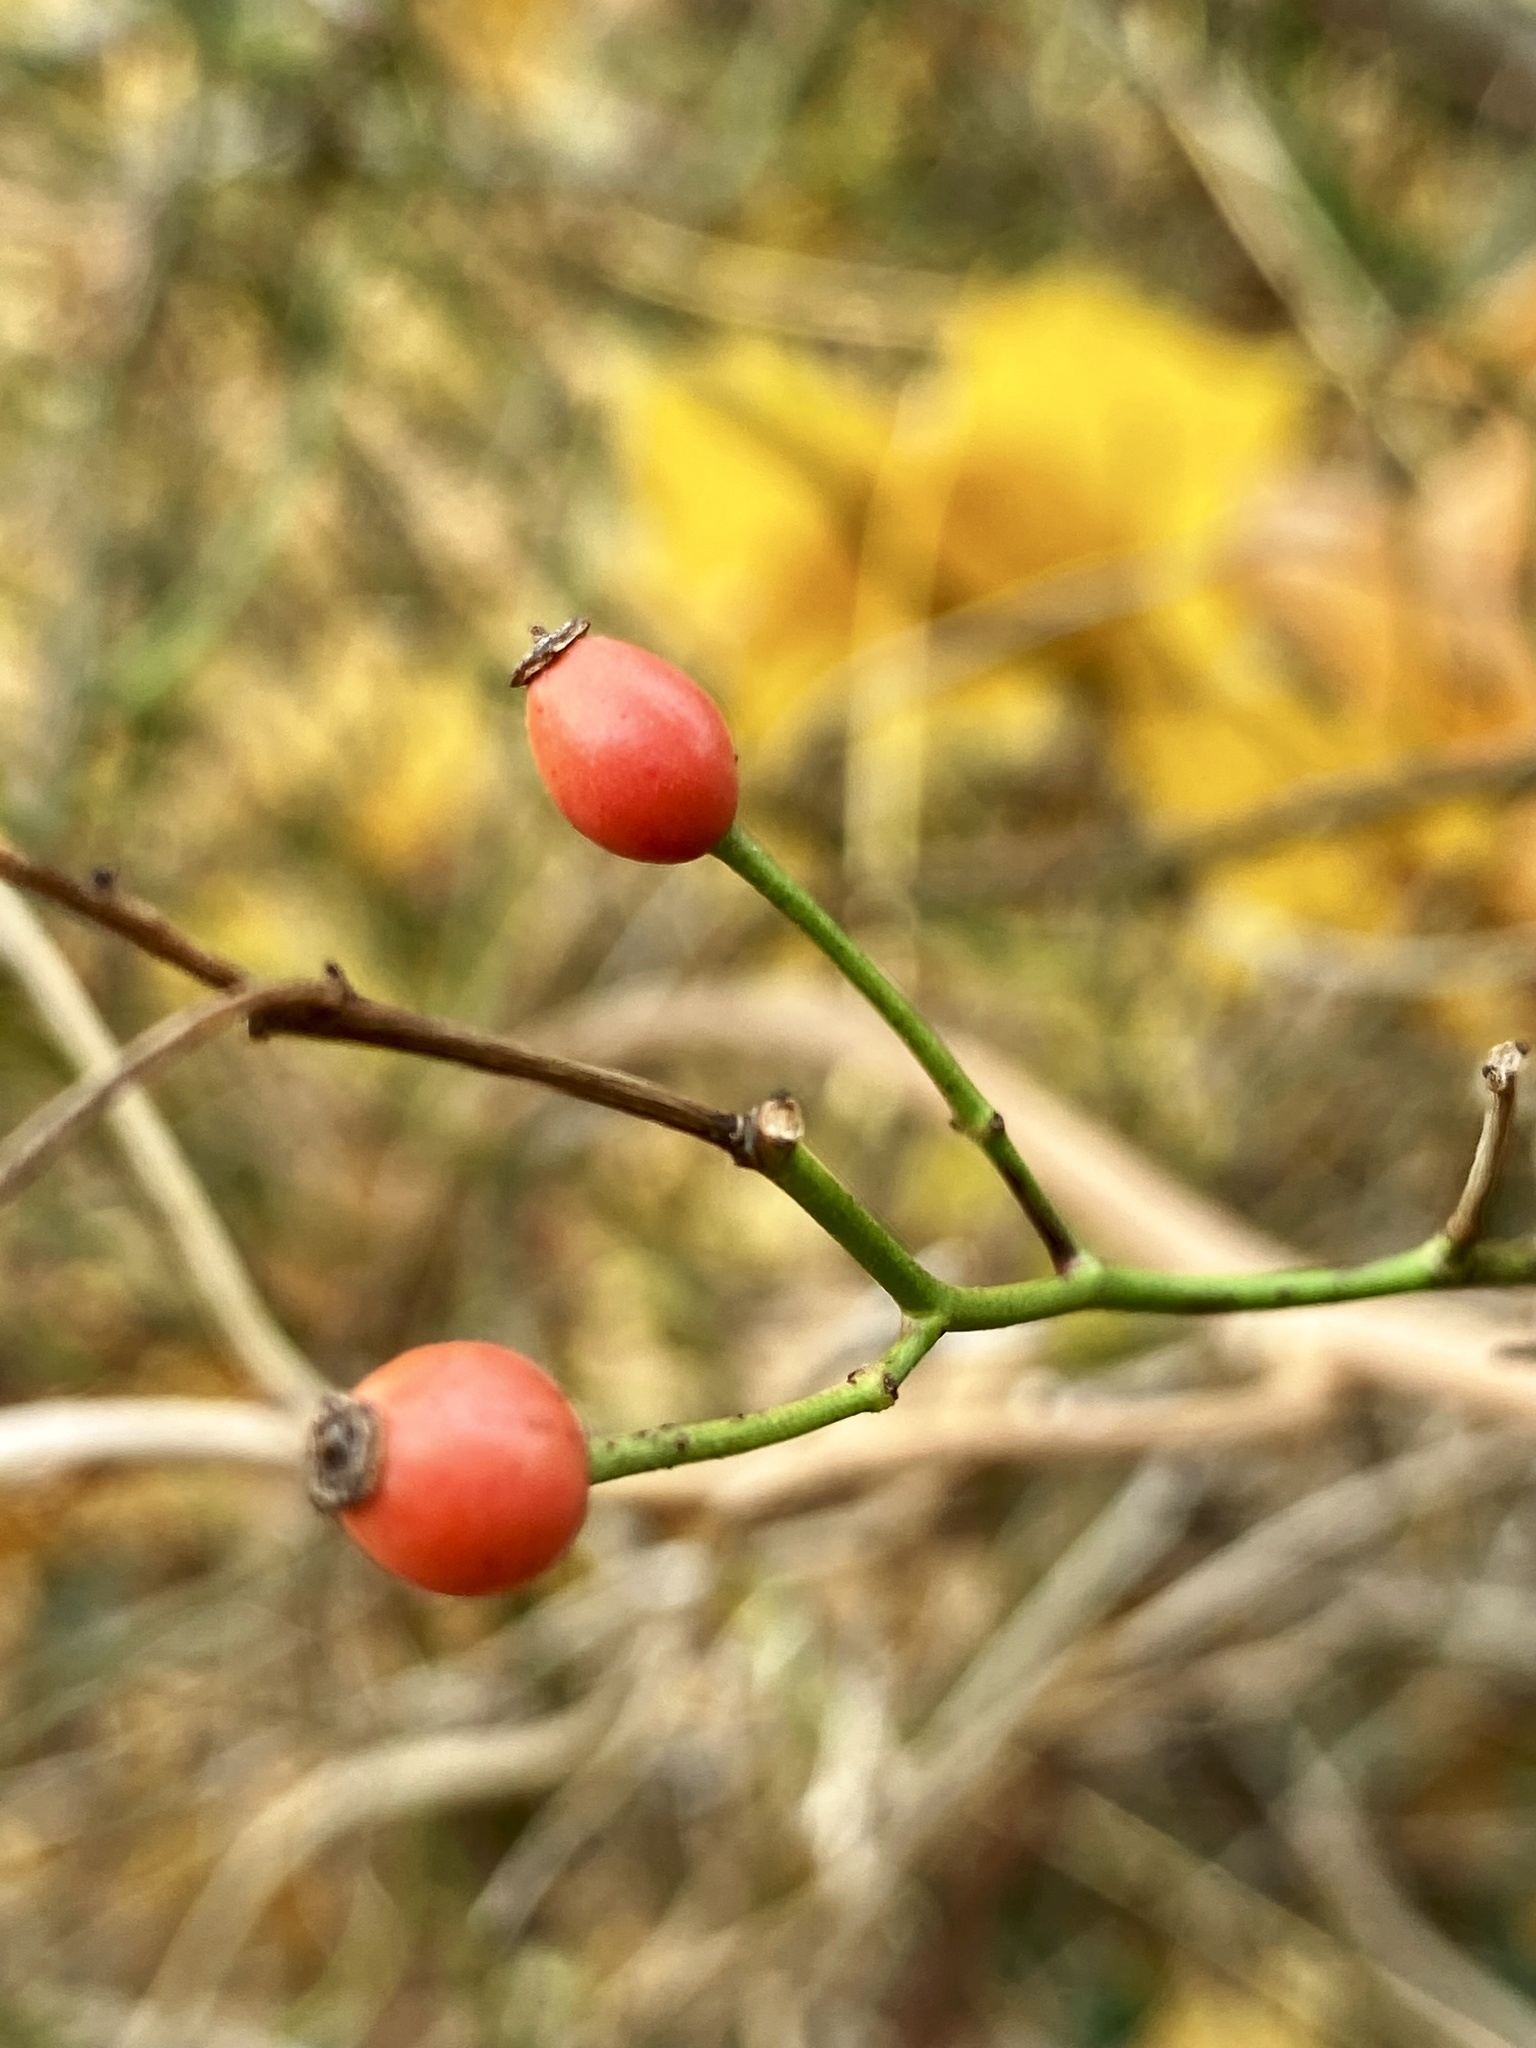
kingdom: Plantae
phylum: Tracheophyta
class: Magnoliopsida
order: Rosales
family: Rosaceae
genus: Rosa
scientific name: Rosa multiflora
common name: Multiflora rose
